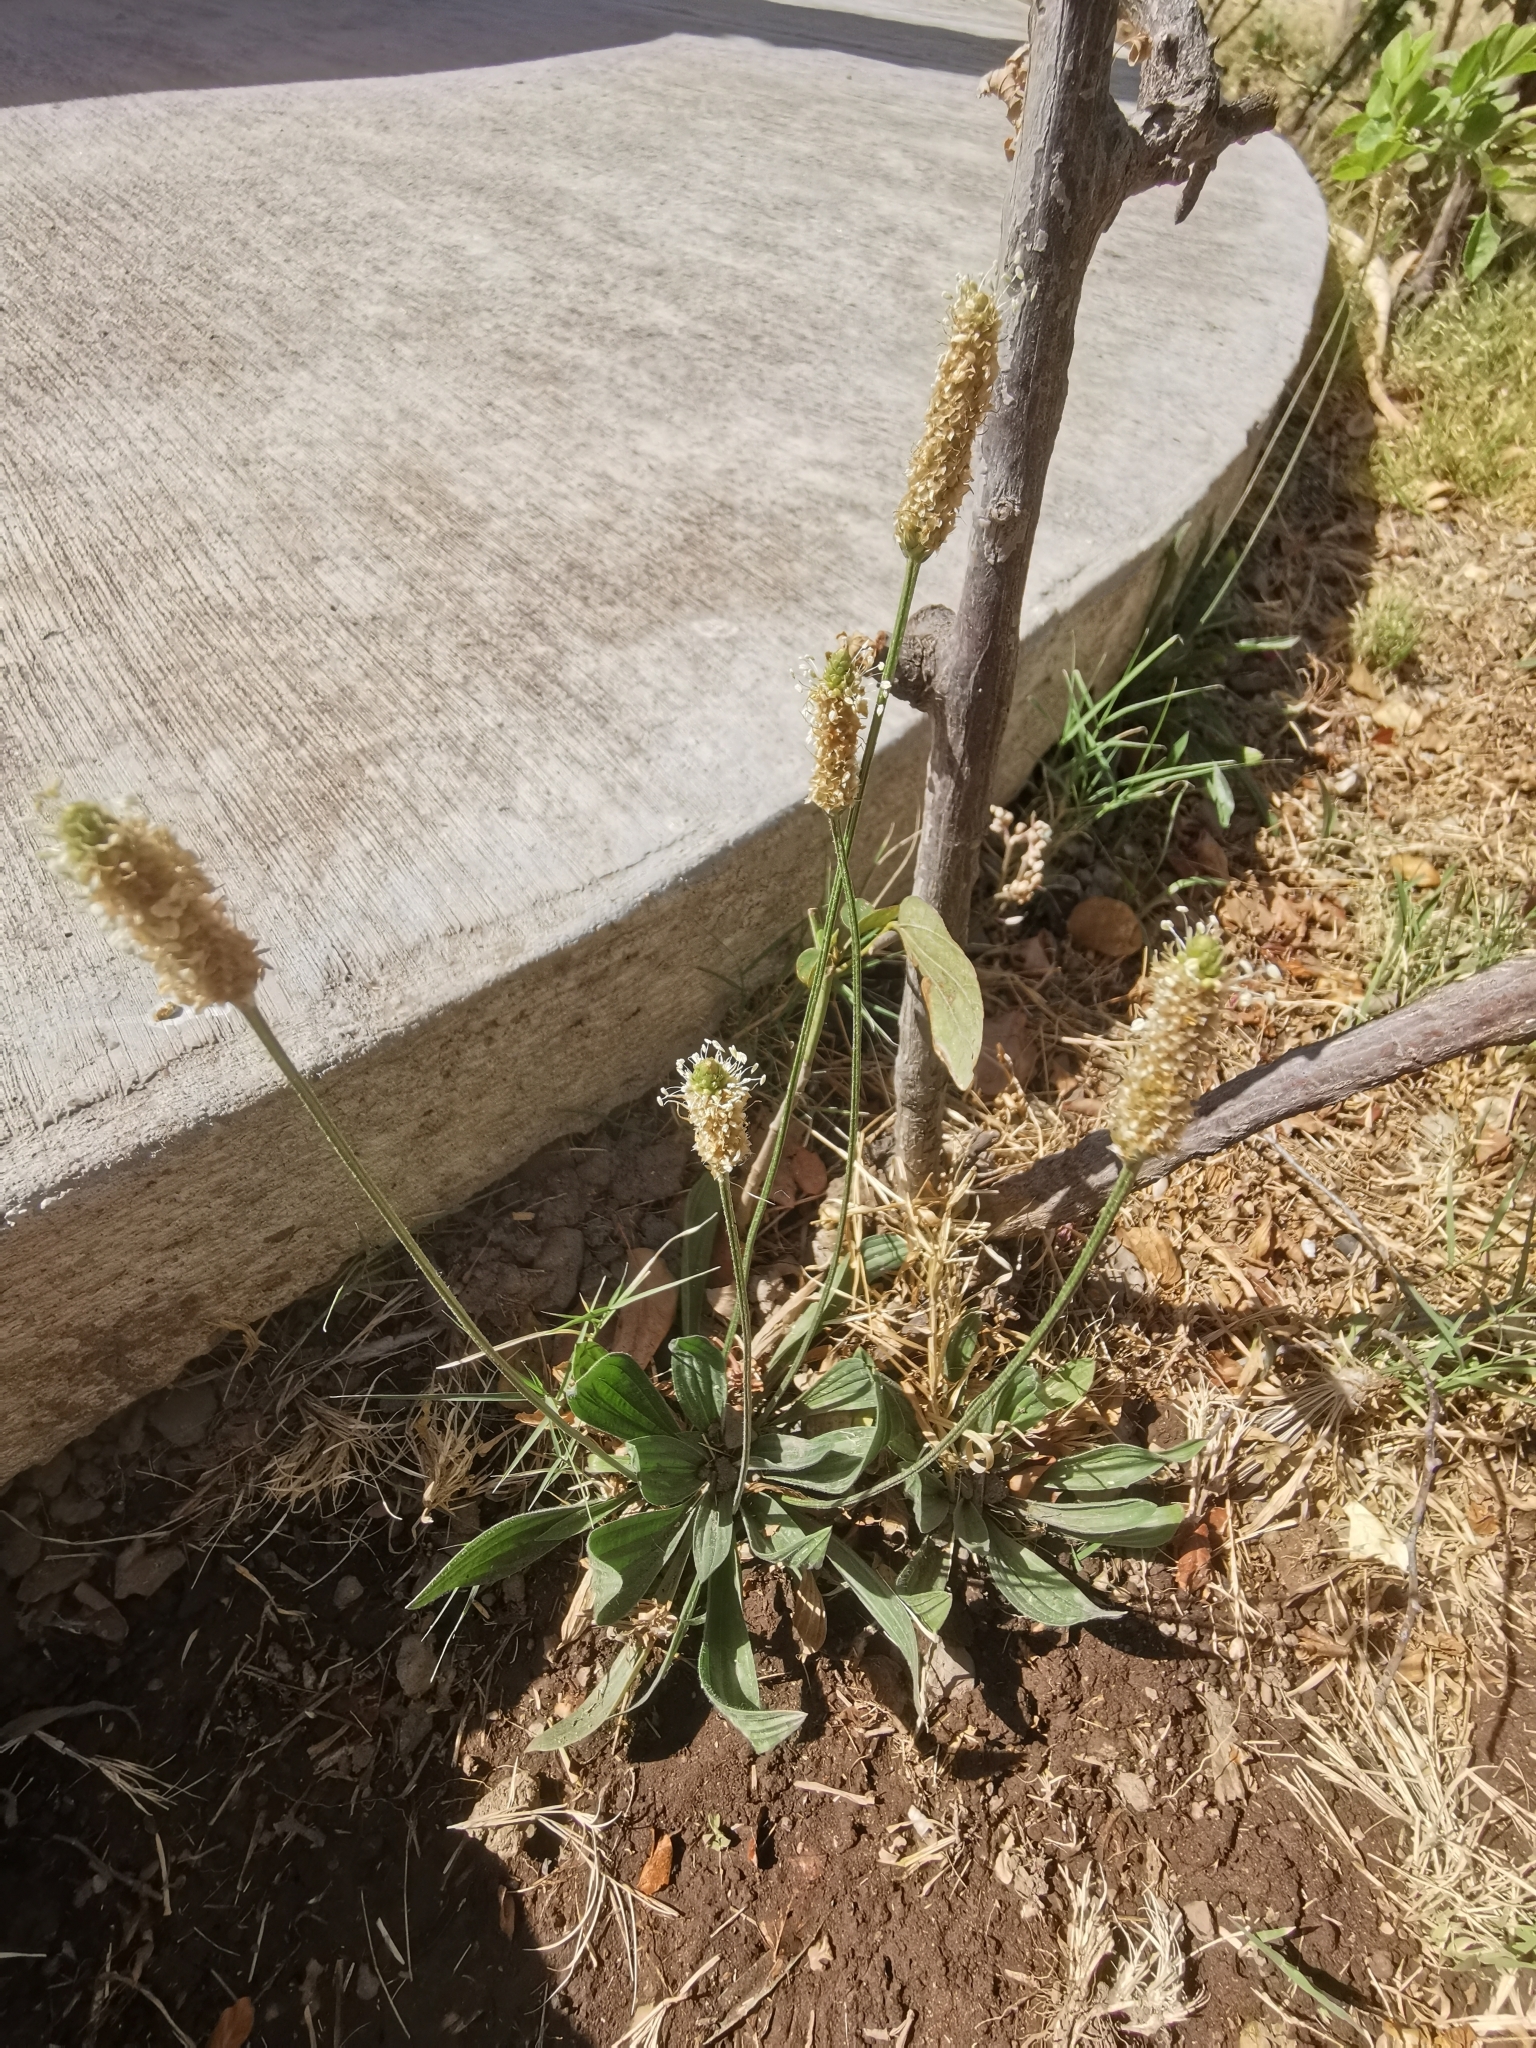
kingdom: Plantae
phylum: Tracheophyta
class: Magnoliopsida
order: Lamiales
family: Plantaginaceae
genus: Plantago
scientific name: Plantago lanceolata
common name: Ribwort plantain
